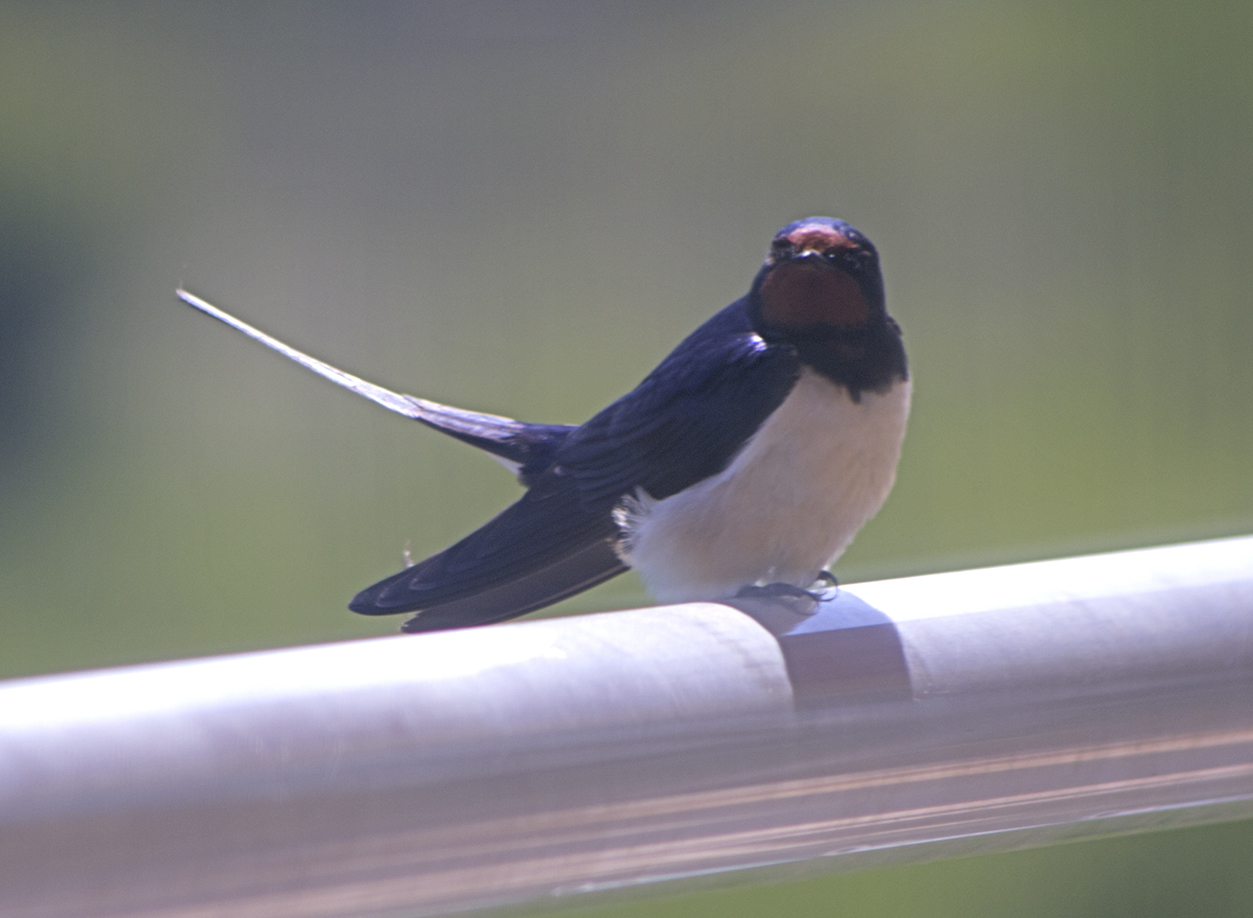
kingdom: Animalia
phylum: Chordata
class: Aves
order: Passeriformes
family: Hirundinidae
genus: Hirundo
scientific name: Hirundo rustica
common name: Barn swallow
